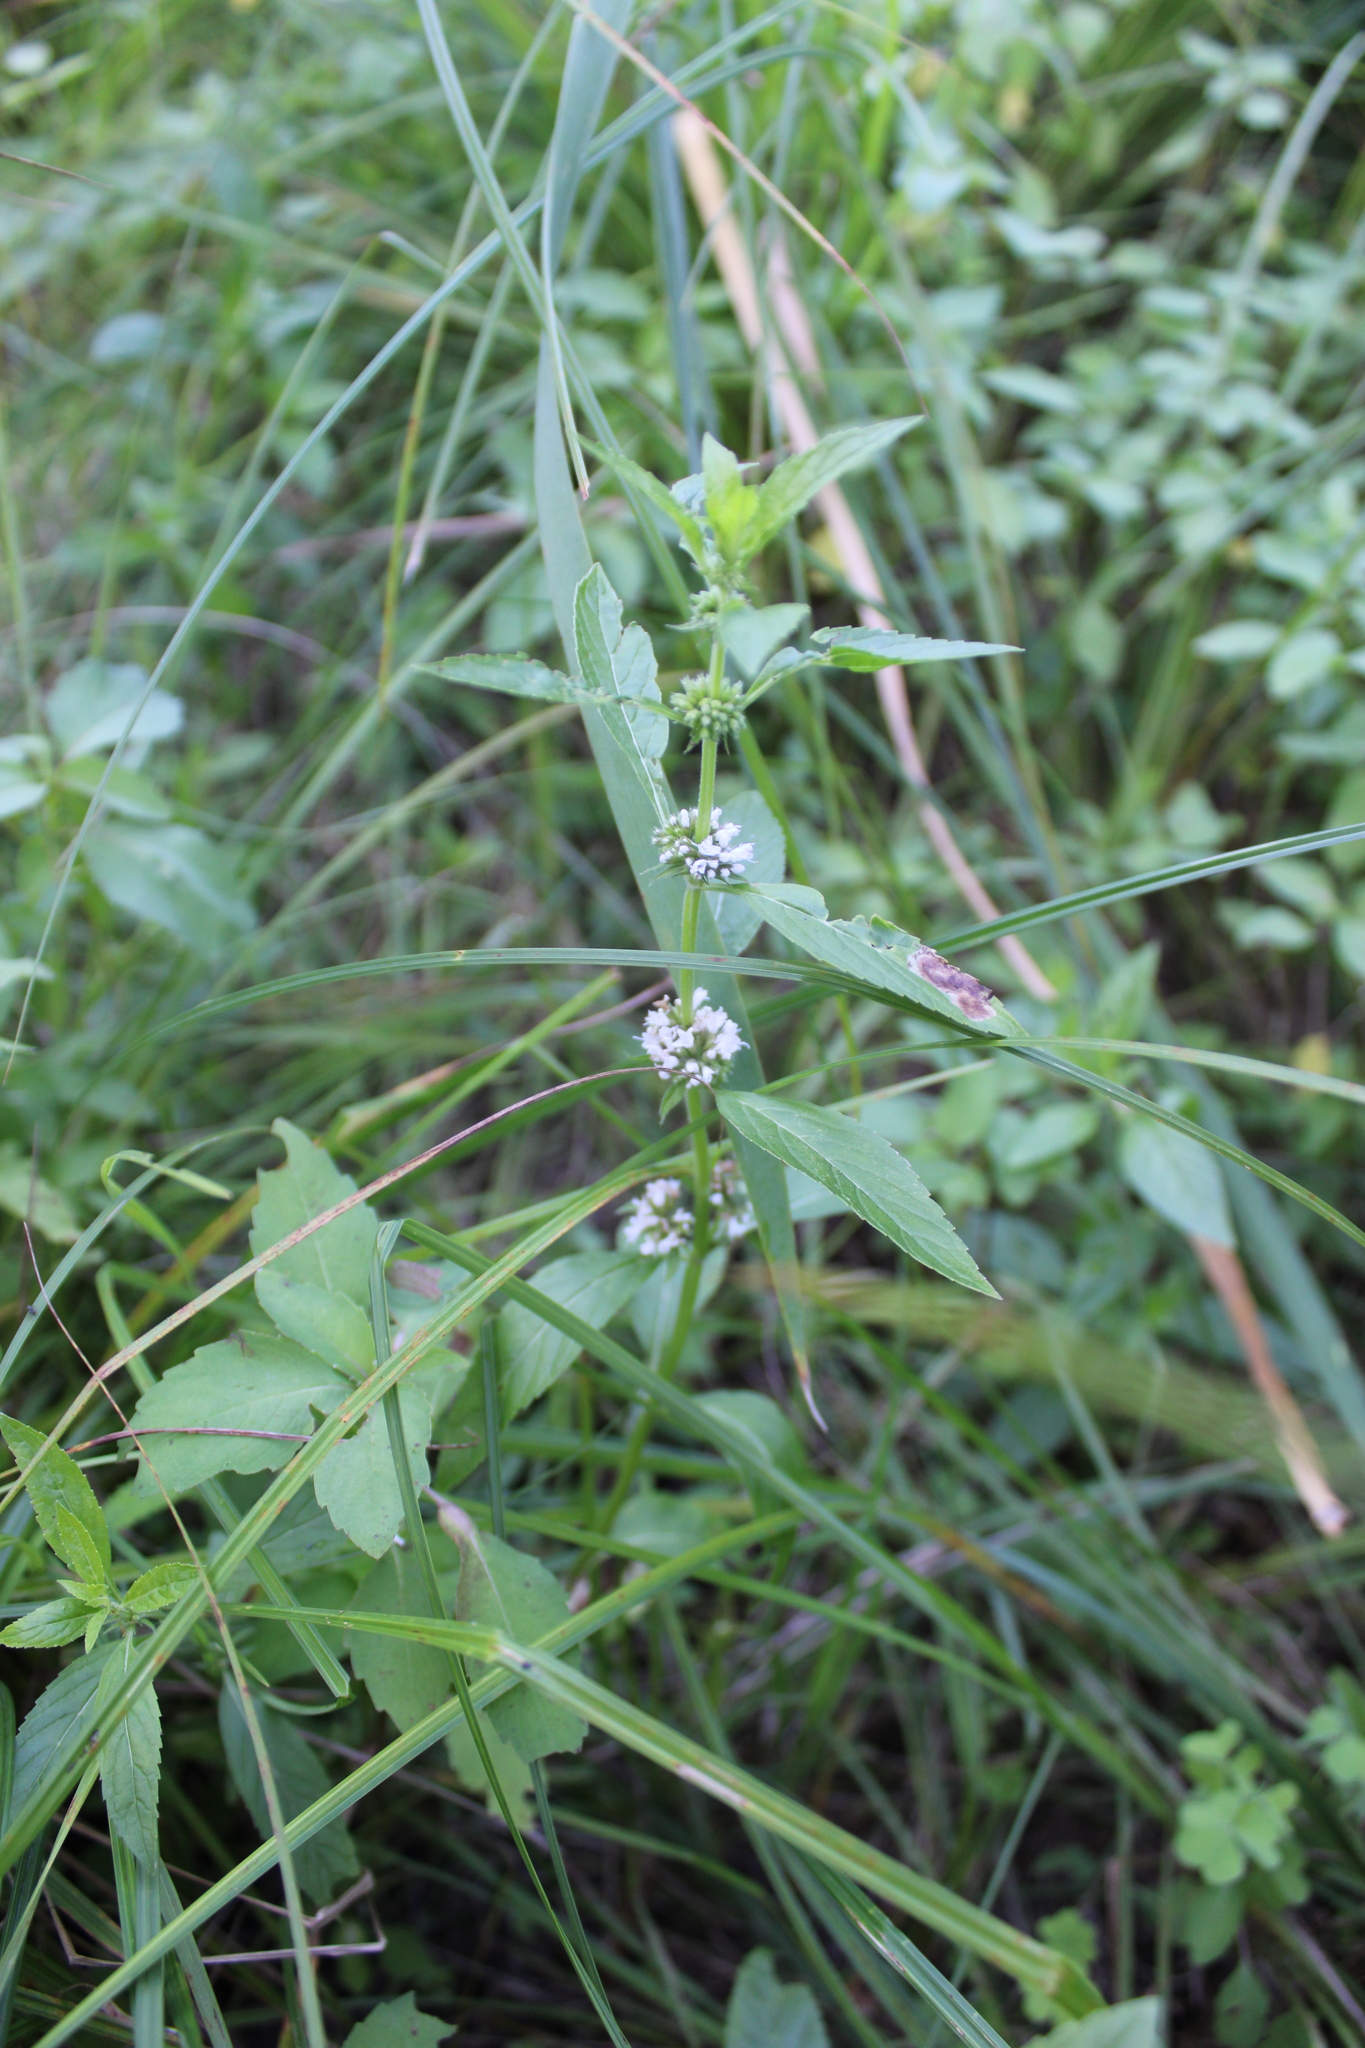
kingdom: Plantae
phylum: Tracheophyta
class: Magnoliopsida
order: Lamiales
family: Lamiaceae
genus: Lycopus
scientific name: Lycopus uniflorus
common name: Northern bugleweed
